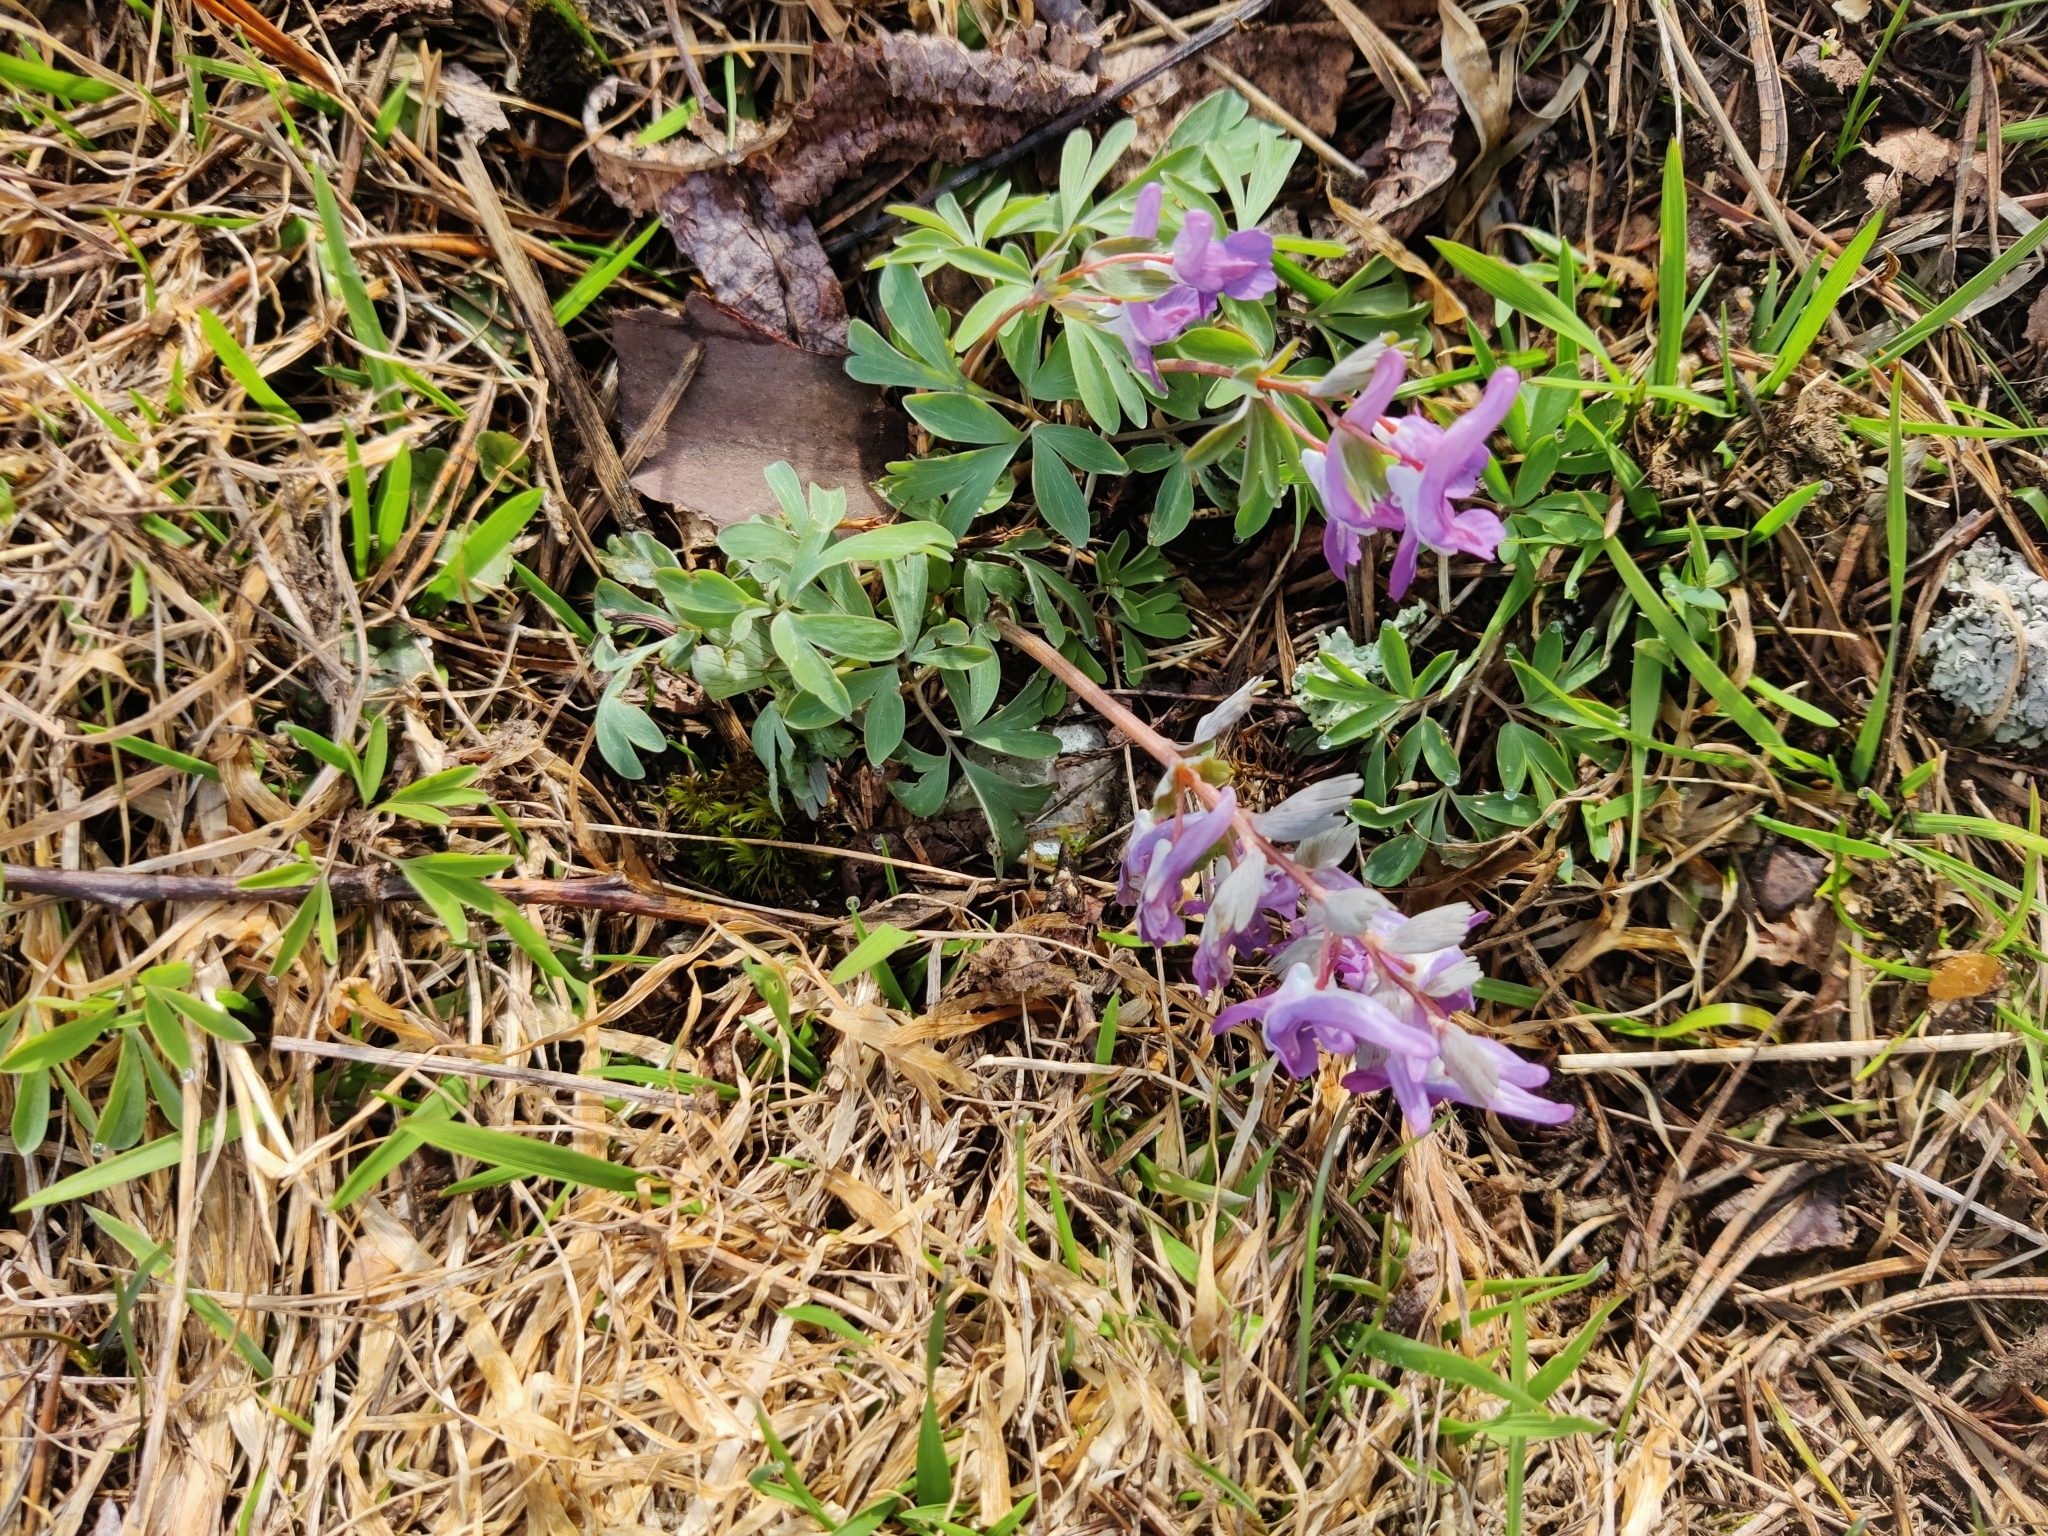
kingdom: Plantae
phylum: Tracheophyta
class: Magnoliopsida
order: Ranunculales
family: Papaveraceae
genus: Corydalis
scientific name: Corydalis solida
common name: Bird-in-a-bush
